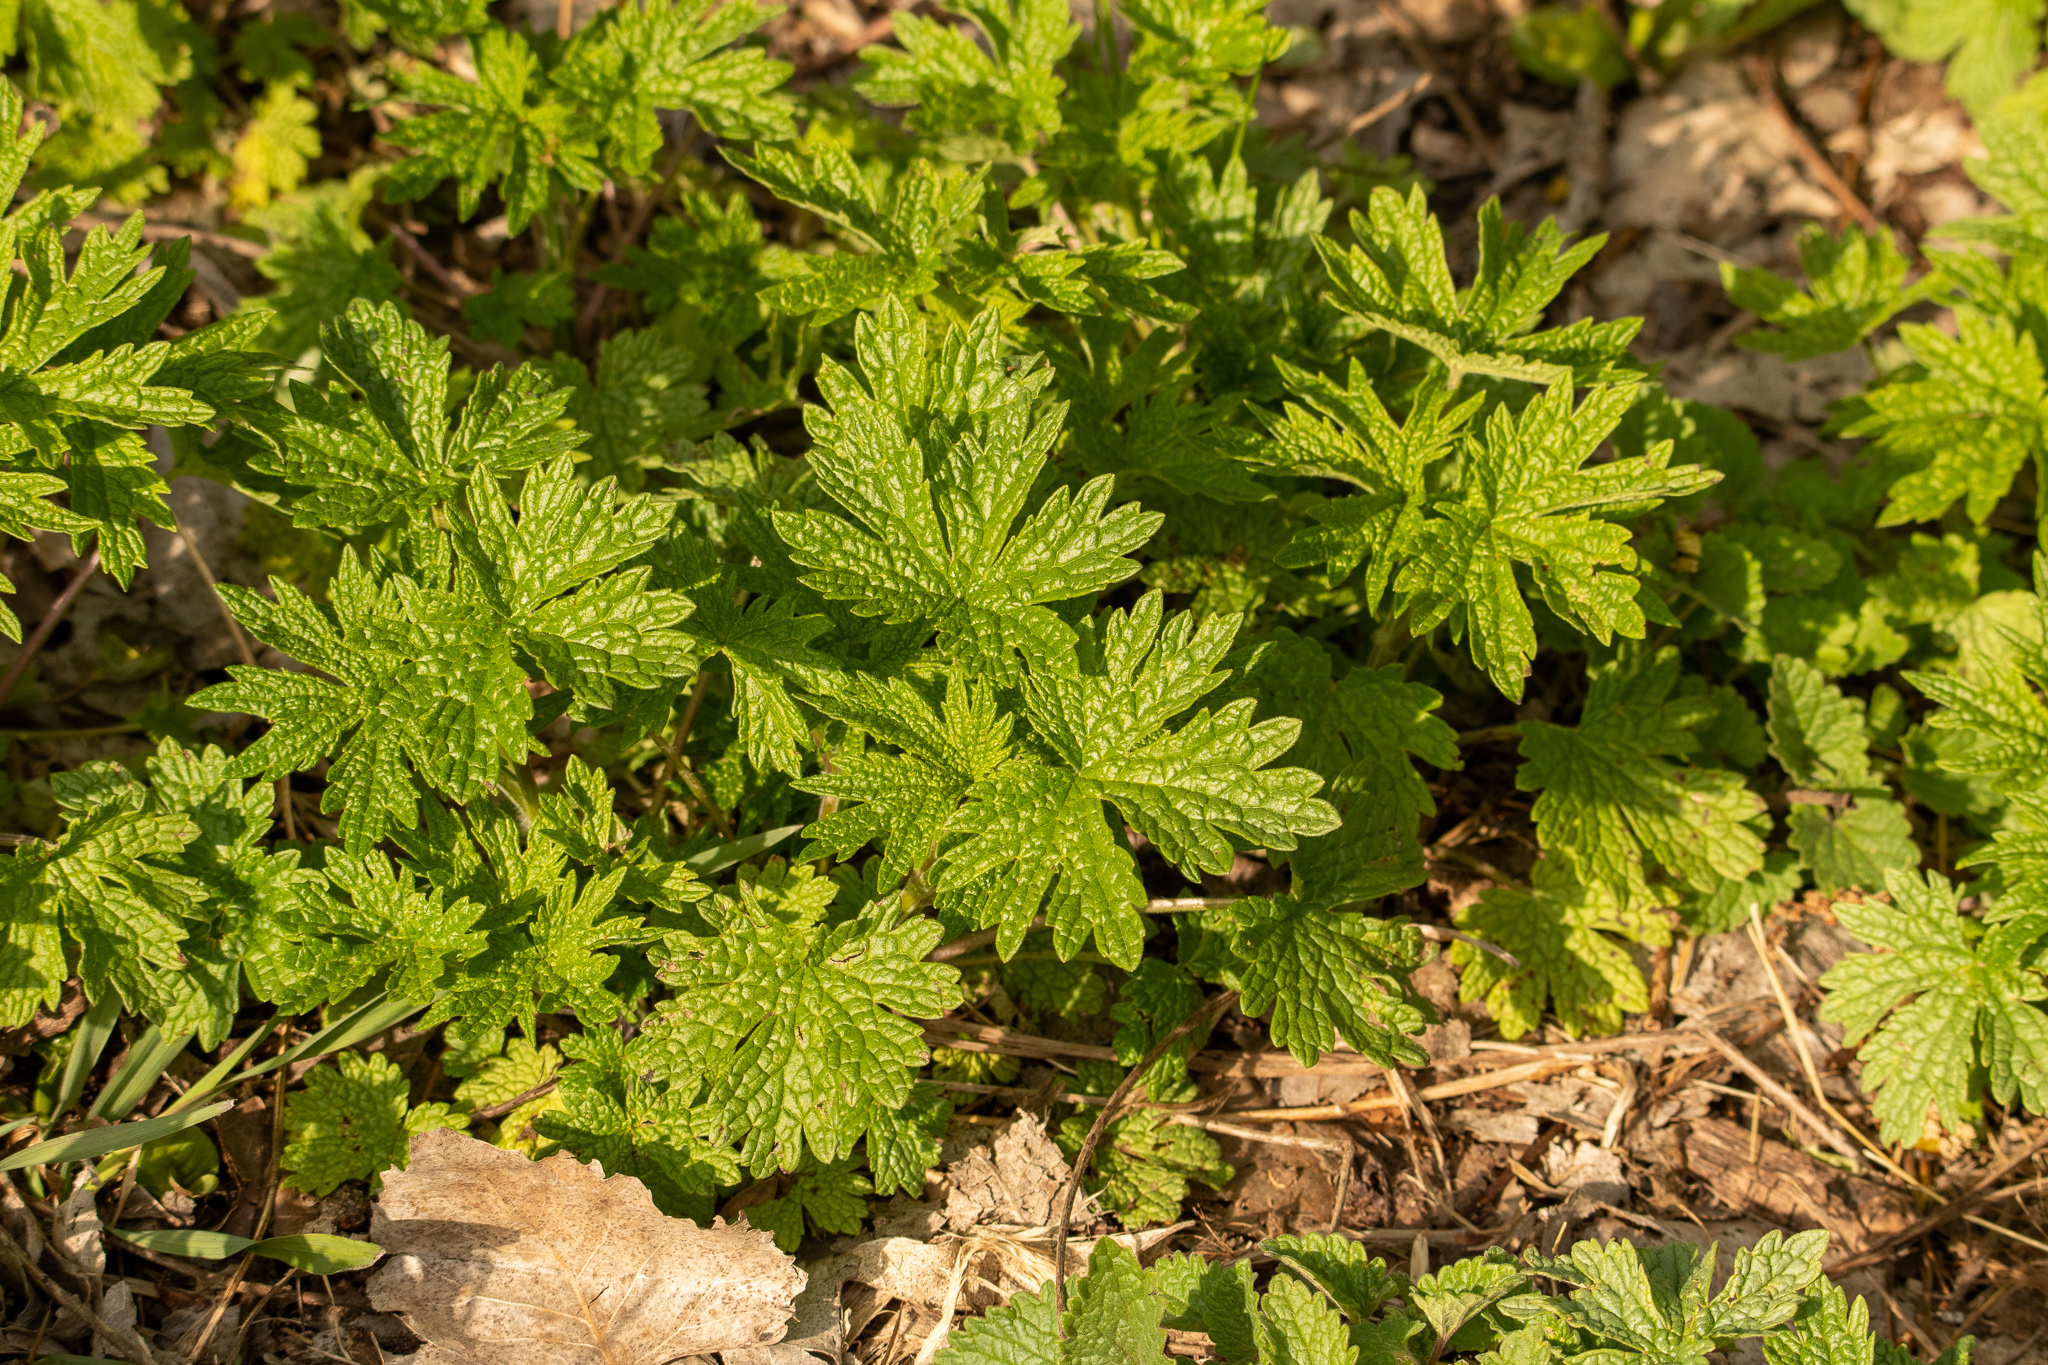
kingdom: Plantae
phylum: Tracheophyta
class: Magnoliopsida
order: Lamiales
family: Lamiaceae
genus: Leonurus
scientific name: Leonurus cardiaca
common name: Motherwort
